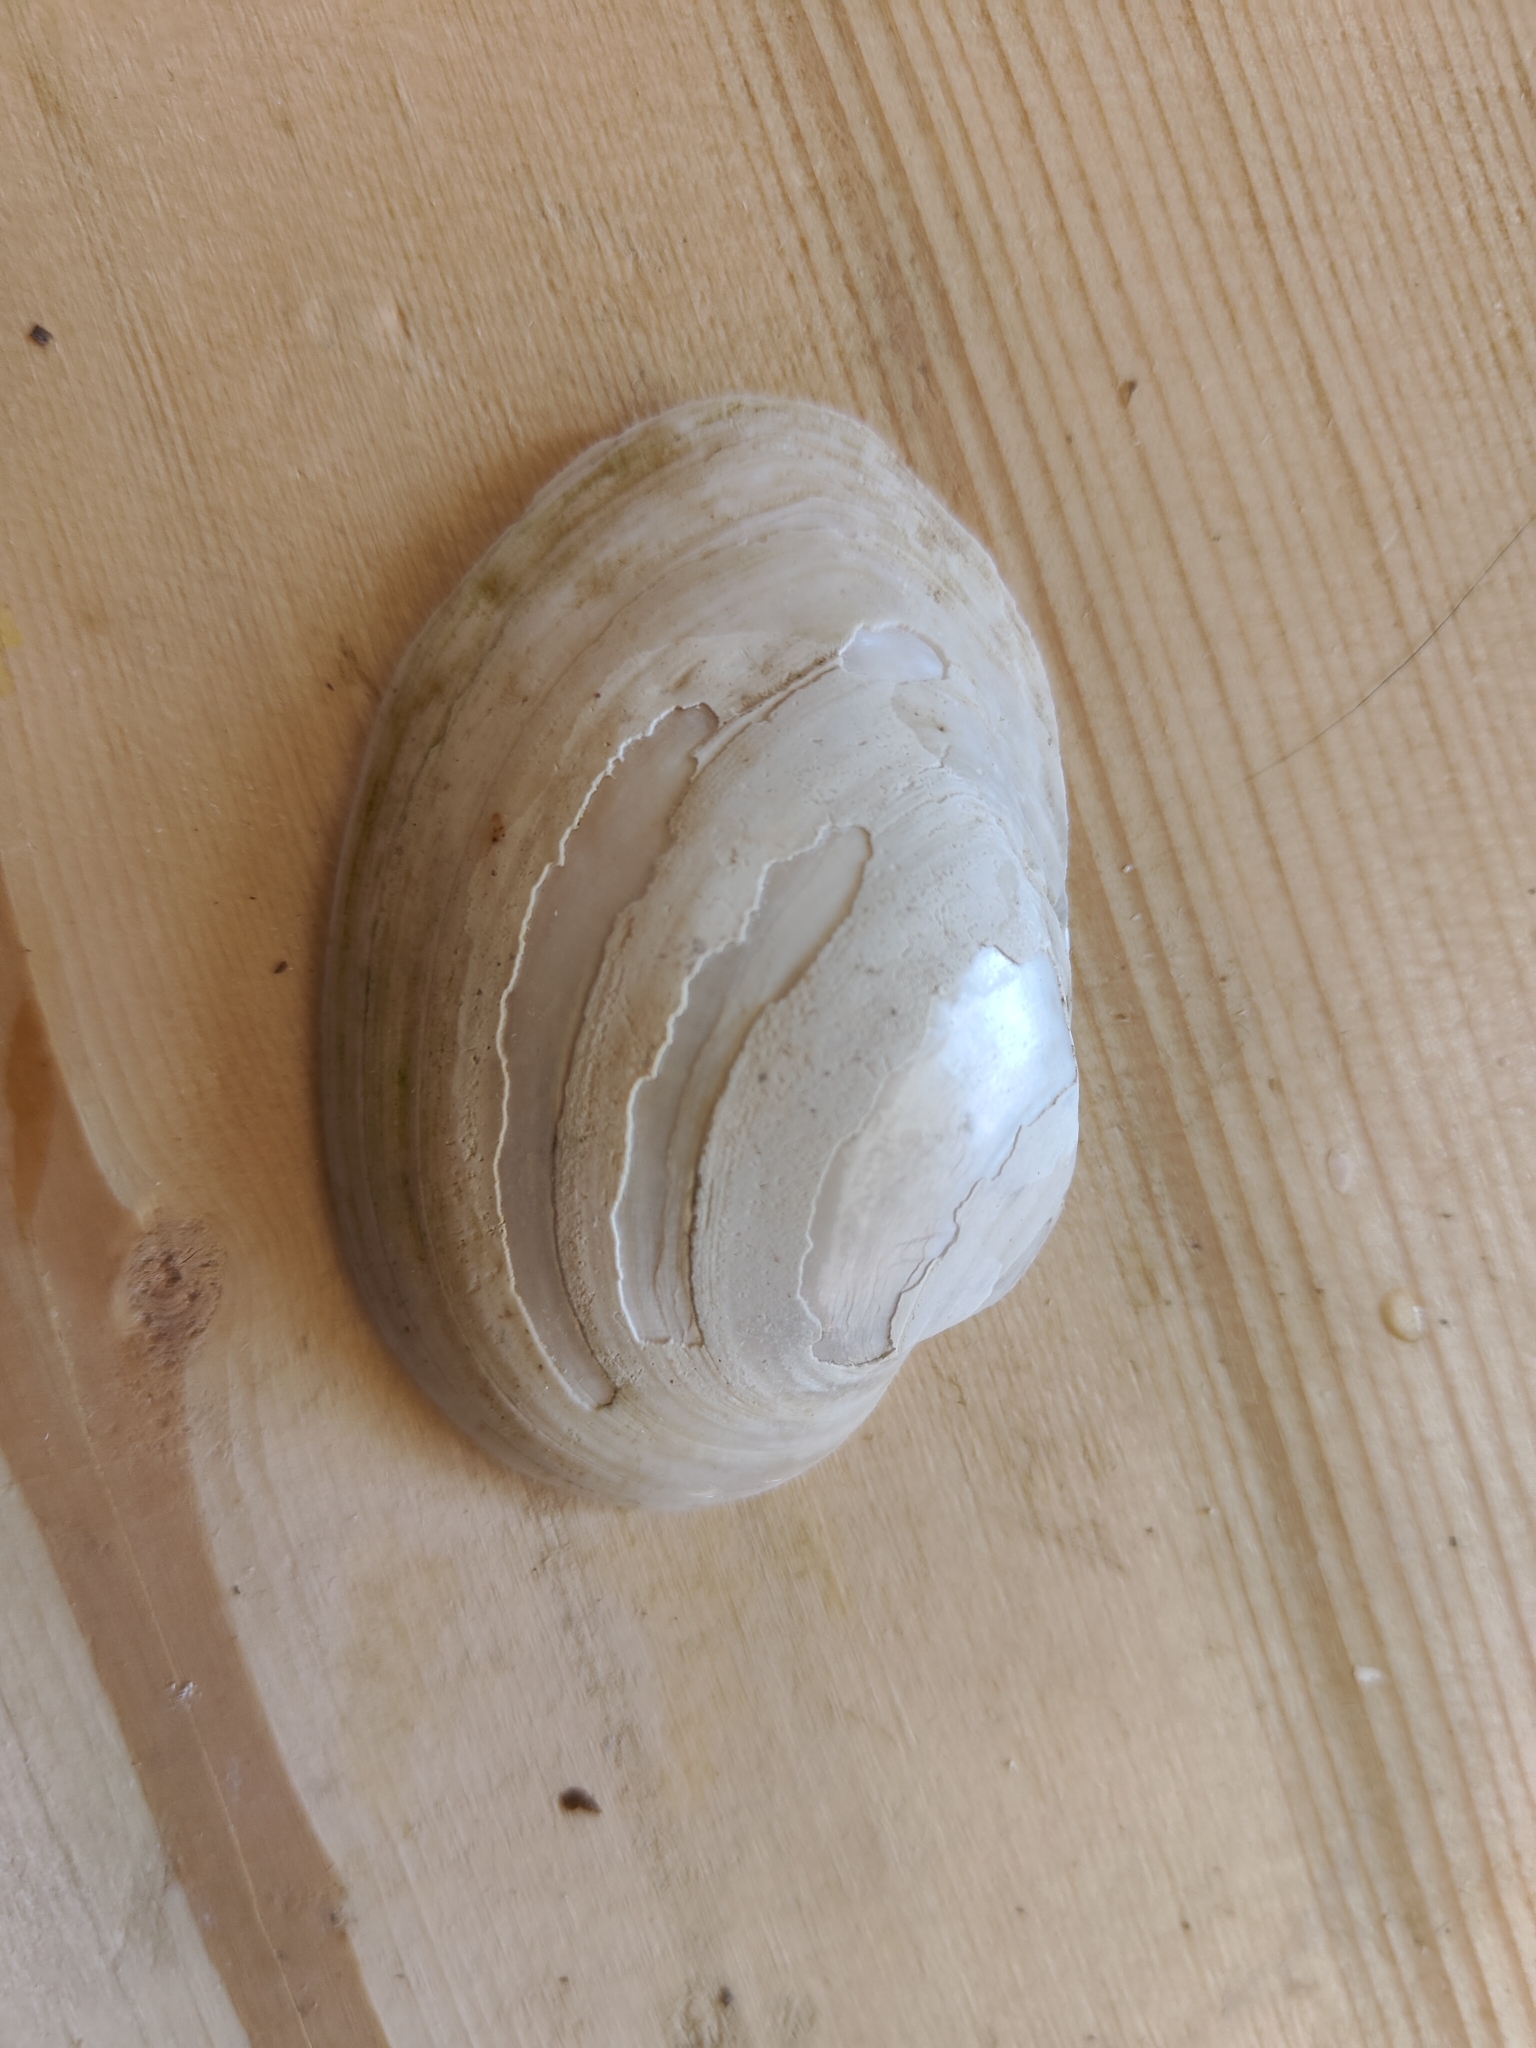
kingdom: Animalia
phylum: Mollusca
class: Bivalvia
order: Unionida
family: Unionidae
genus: Lampsilis
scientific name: Lampsilis cardium
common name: Plain pocketbook
